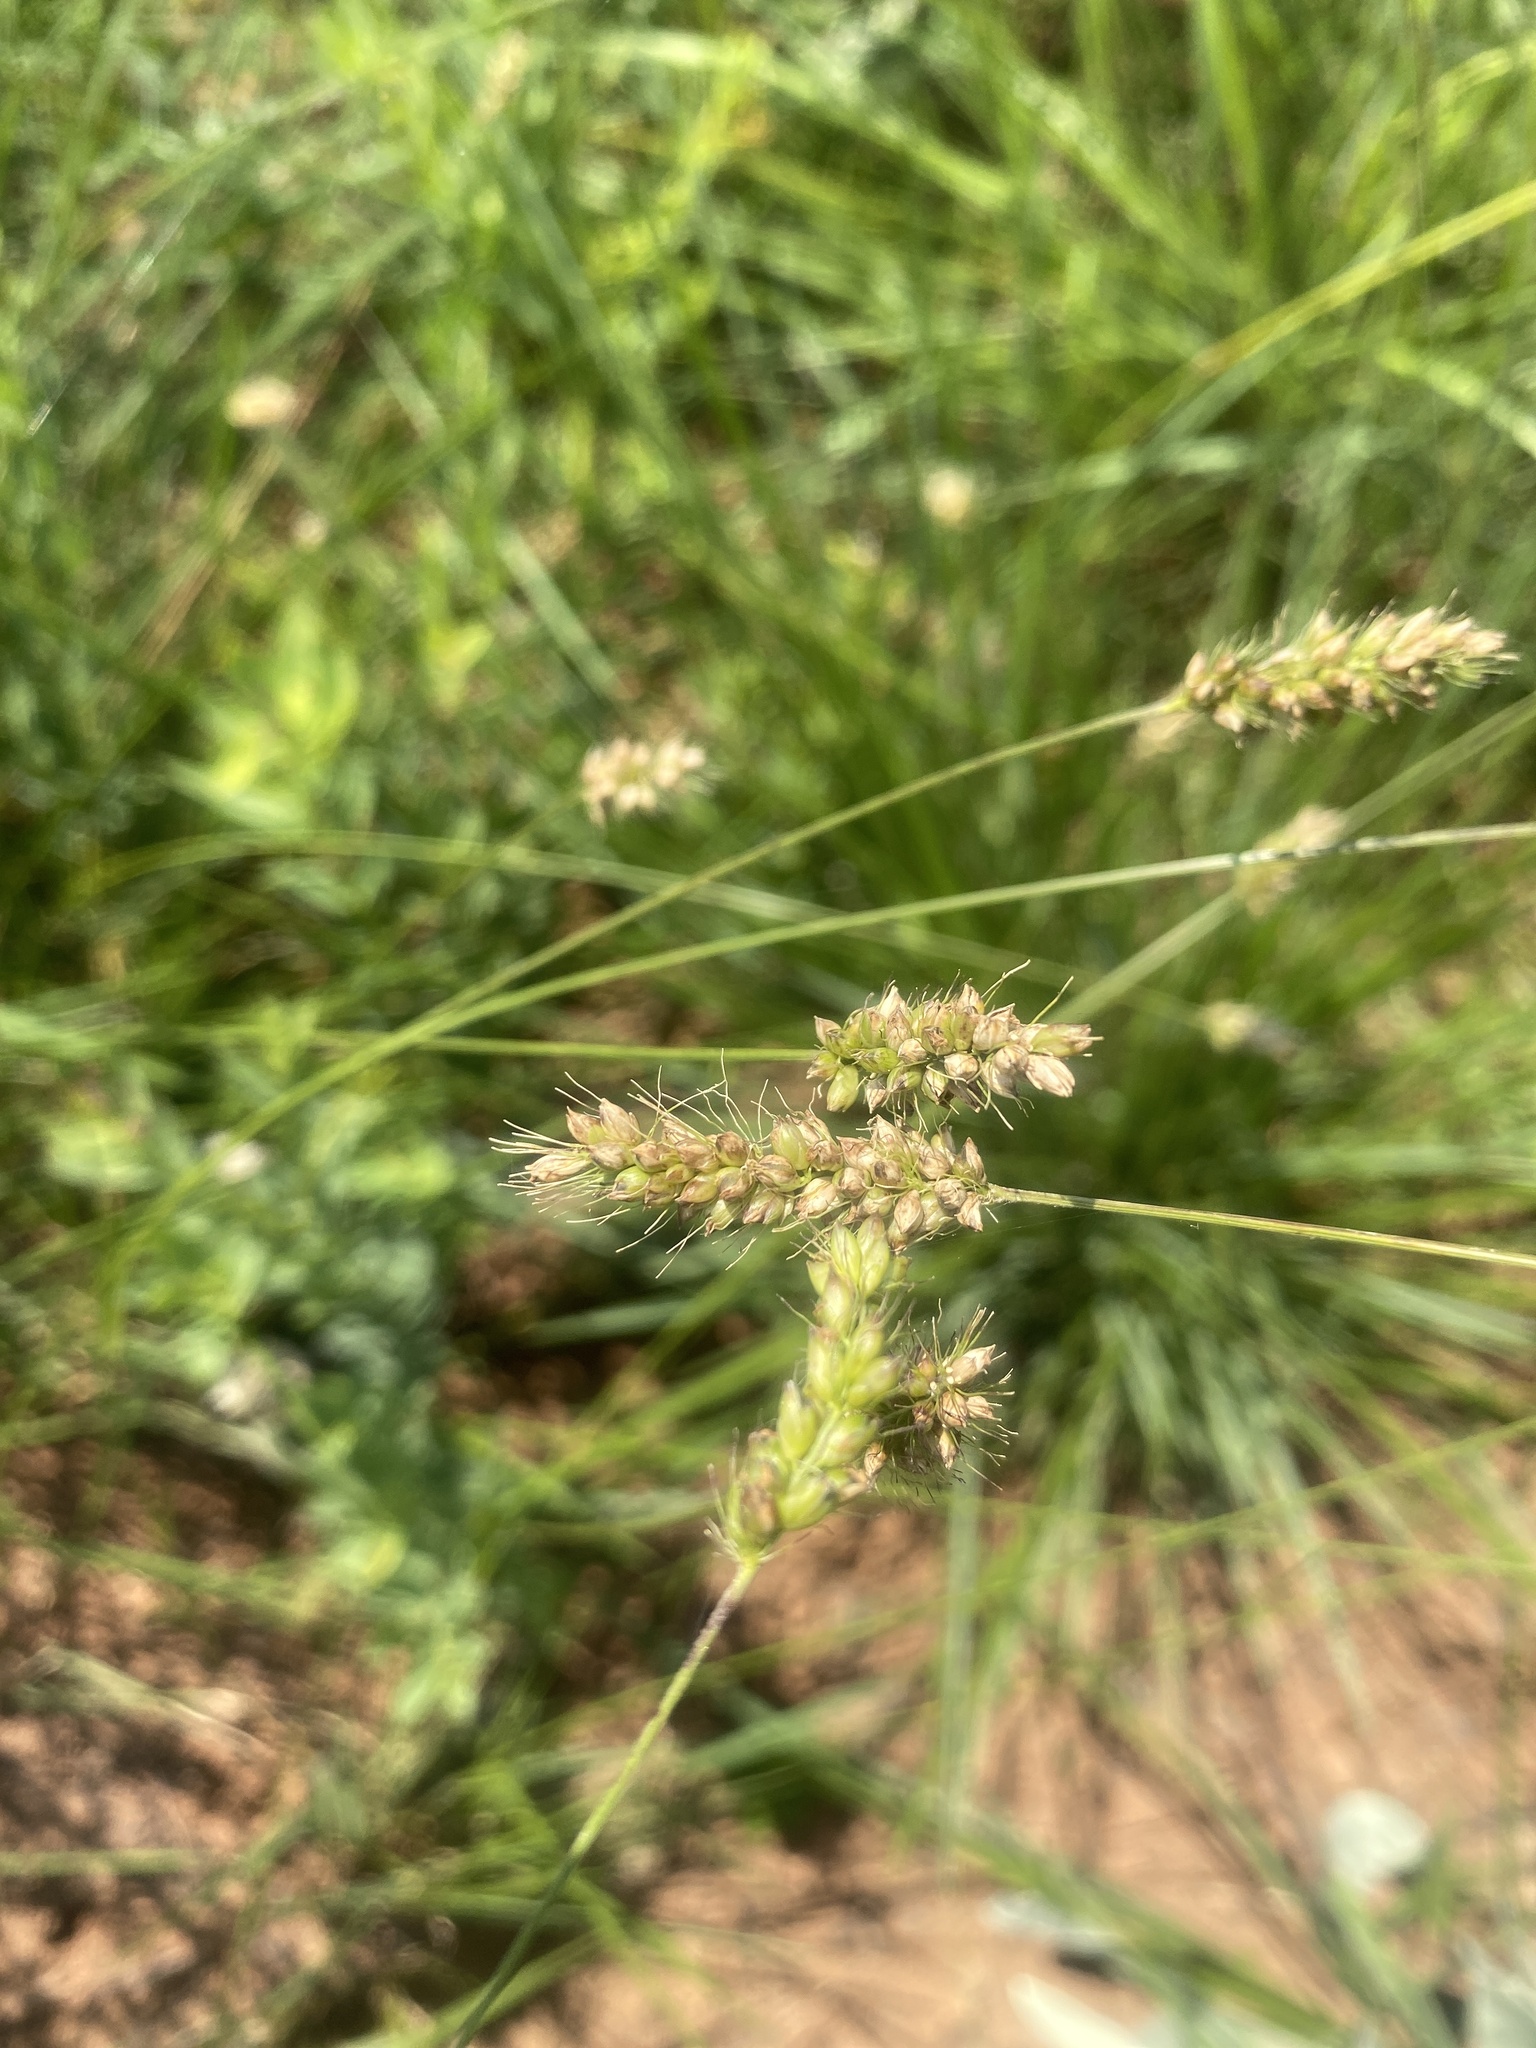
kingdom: Plantae
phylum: Tracheophyta
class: Liliopsida
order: Poales
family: Poaceae
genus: Setaria
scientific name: Setaria incrassata
